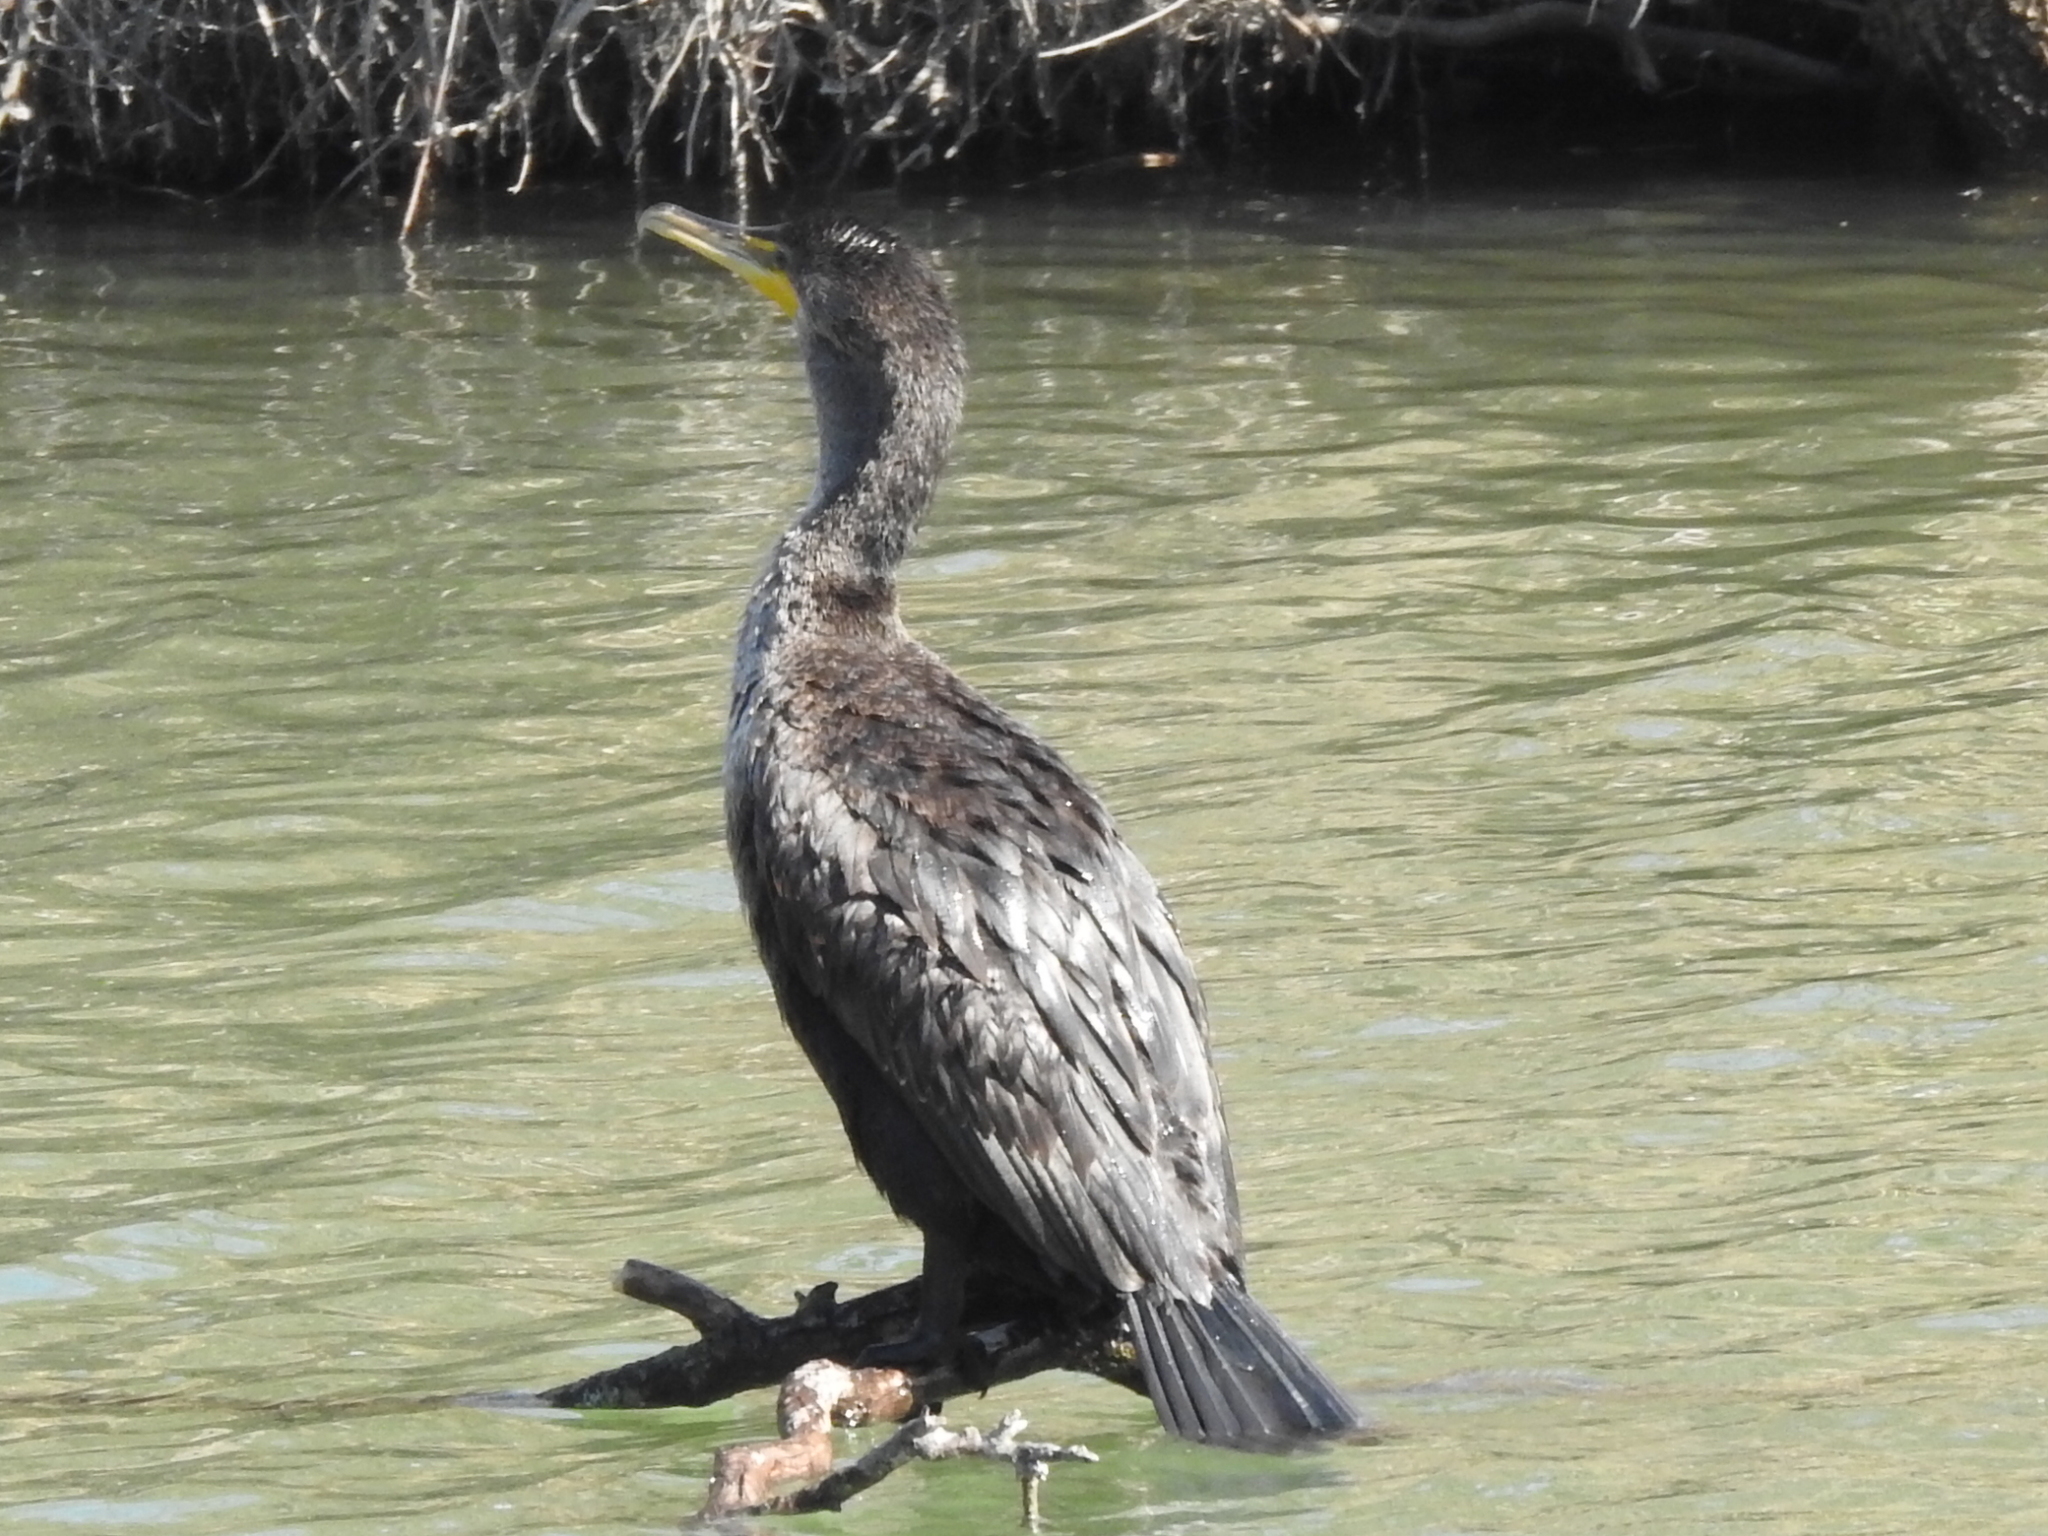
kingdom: Animalia
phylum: Chordata
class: Aves
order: Suliformes
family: Phalacrocoracidae
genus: Phalacrocorax
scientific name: Phalacrocorax auritus
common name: Double-crested cormorant
